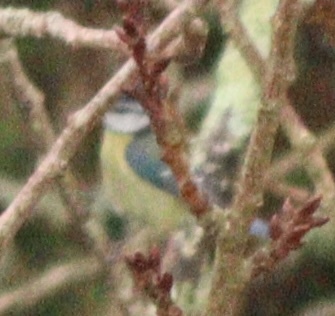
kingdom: Animalia
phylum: Chordata
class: Aves
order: Passeriformes
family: Paridae
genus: Cyanistes
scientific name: Cyanistes caeruleus
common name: Eurasian blue tit
